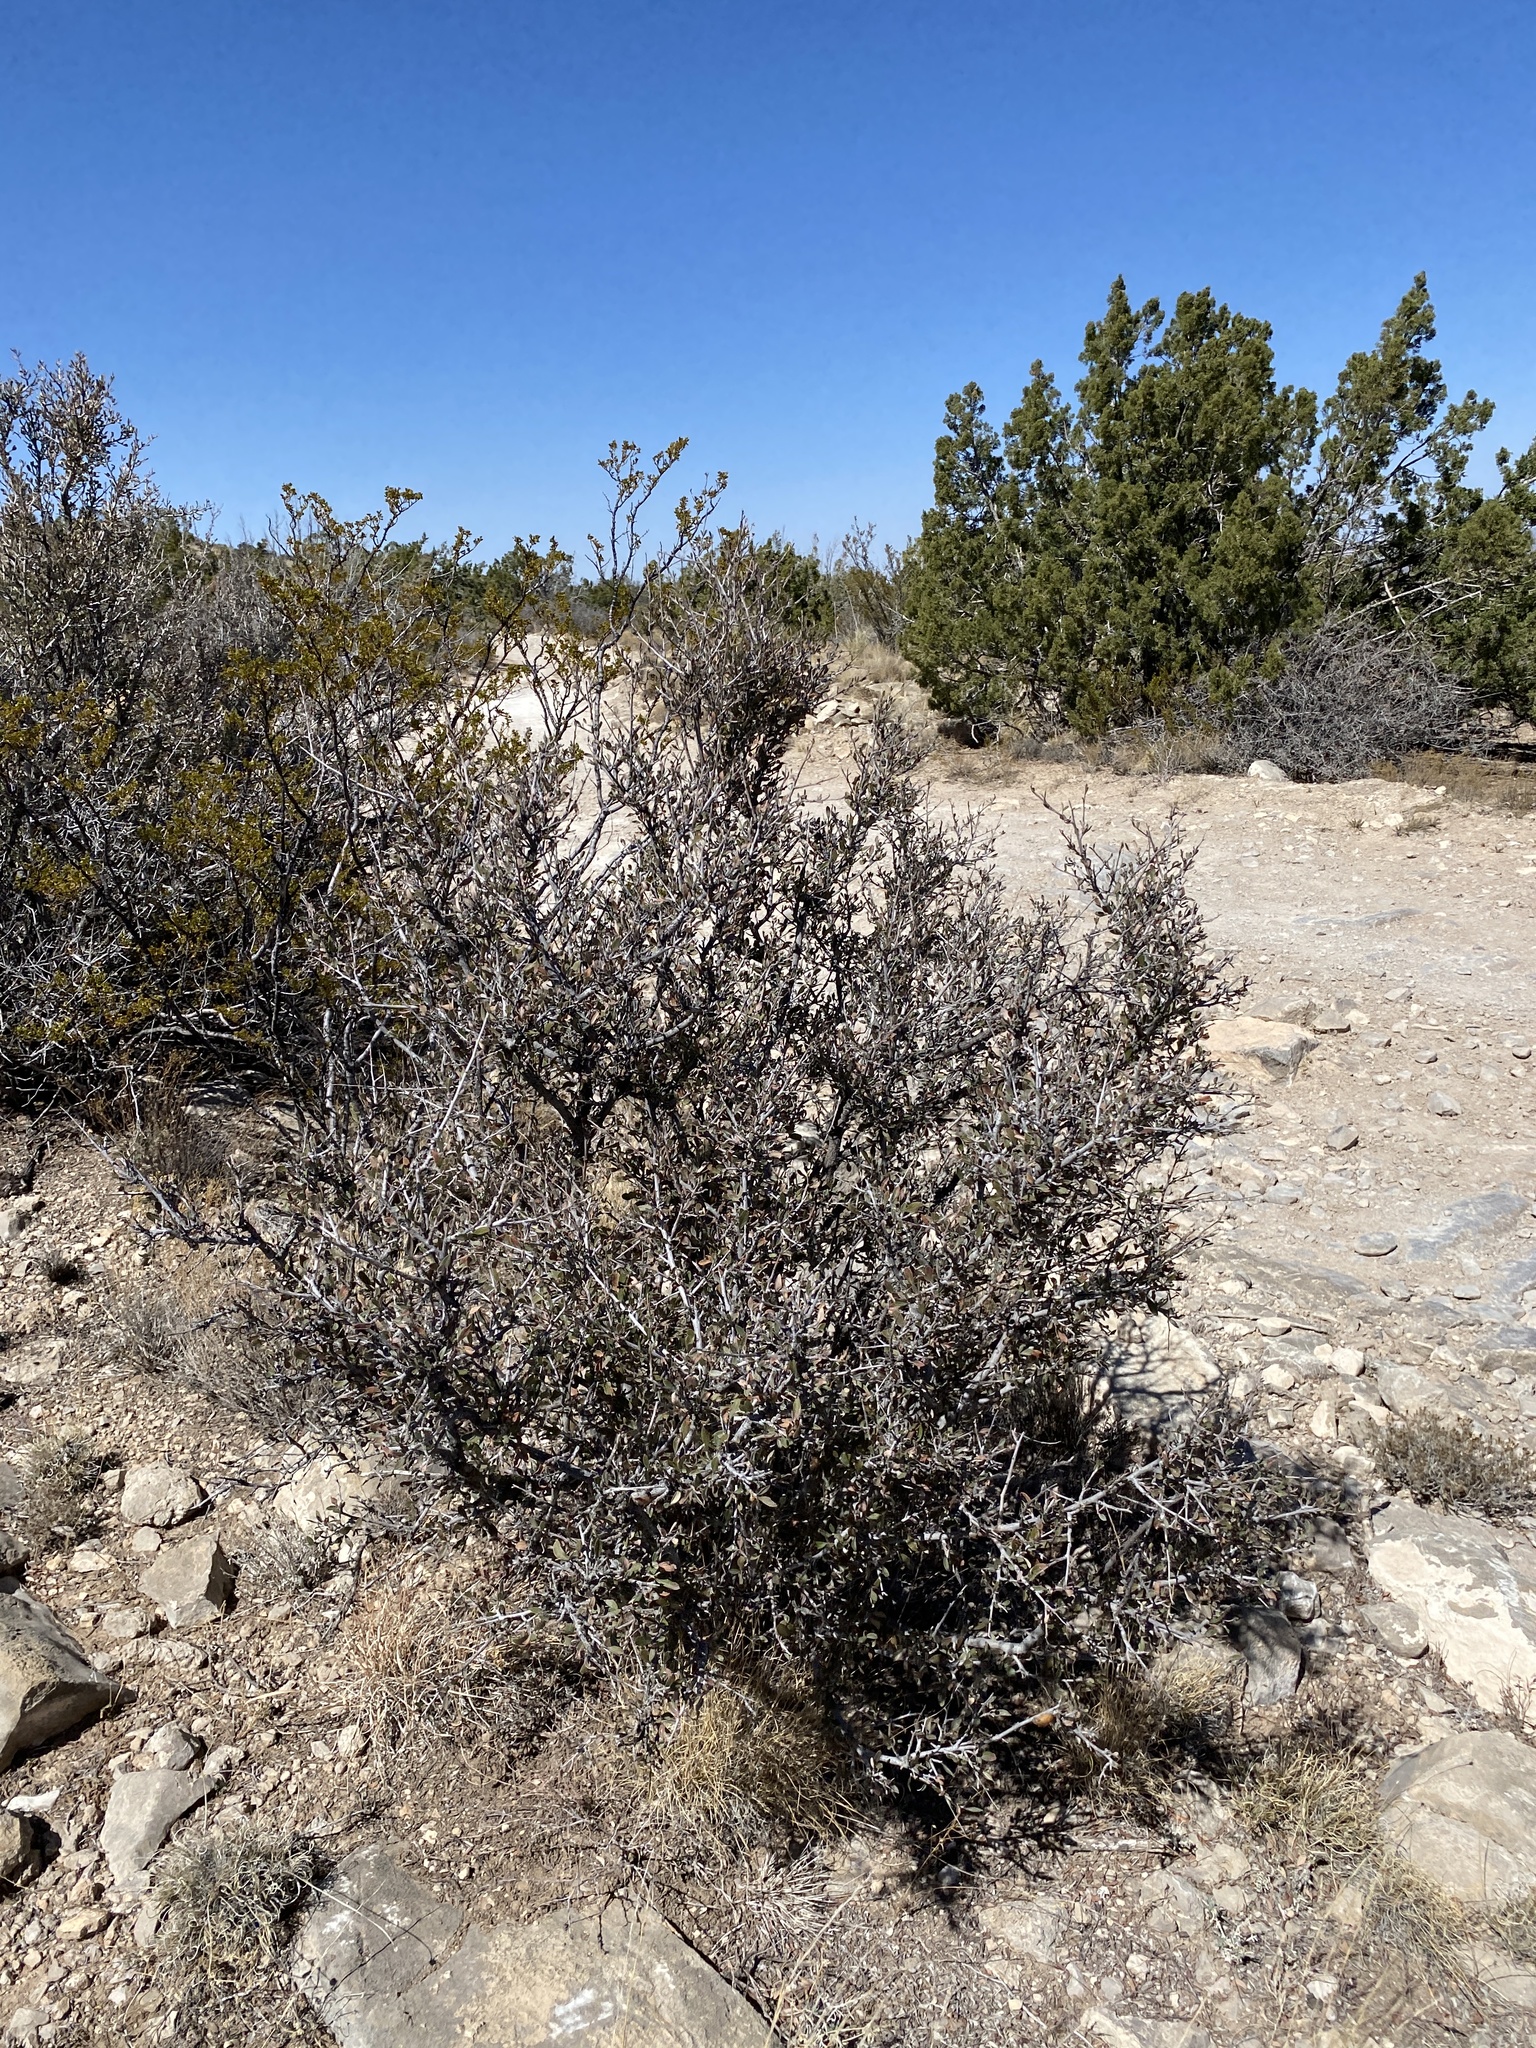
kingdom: Plantae
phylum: Tracheophyta
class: Magnoliopsida
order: Rosales
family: Rosaceae
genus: Cercocarpus
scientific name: Cercocarpus breviflorus
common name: Wright's mountain-mahogany
